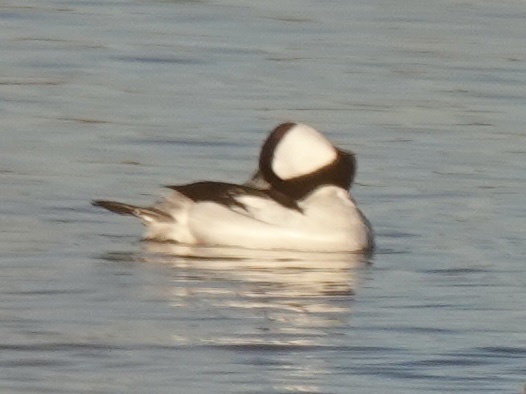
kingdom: Animalia
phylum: Chordata
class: Aves
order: Anseriformes
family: Anatidae
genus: Bucephala
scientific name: Bucephala albeola
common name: Bufflehead
